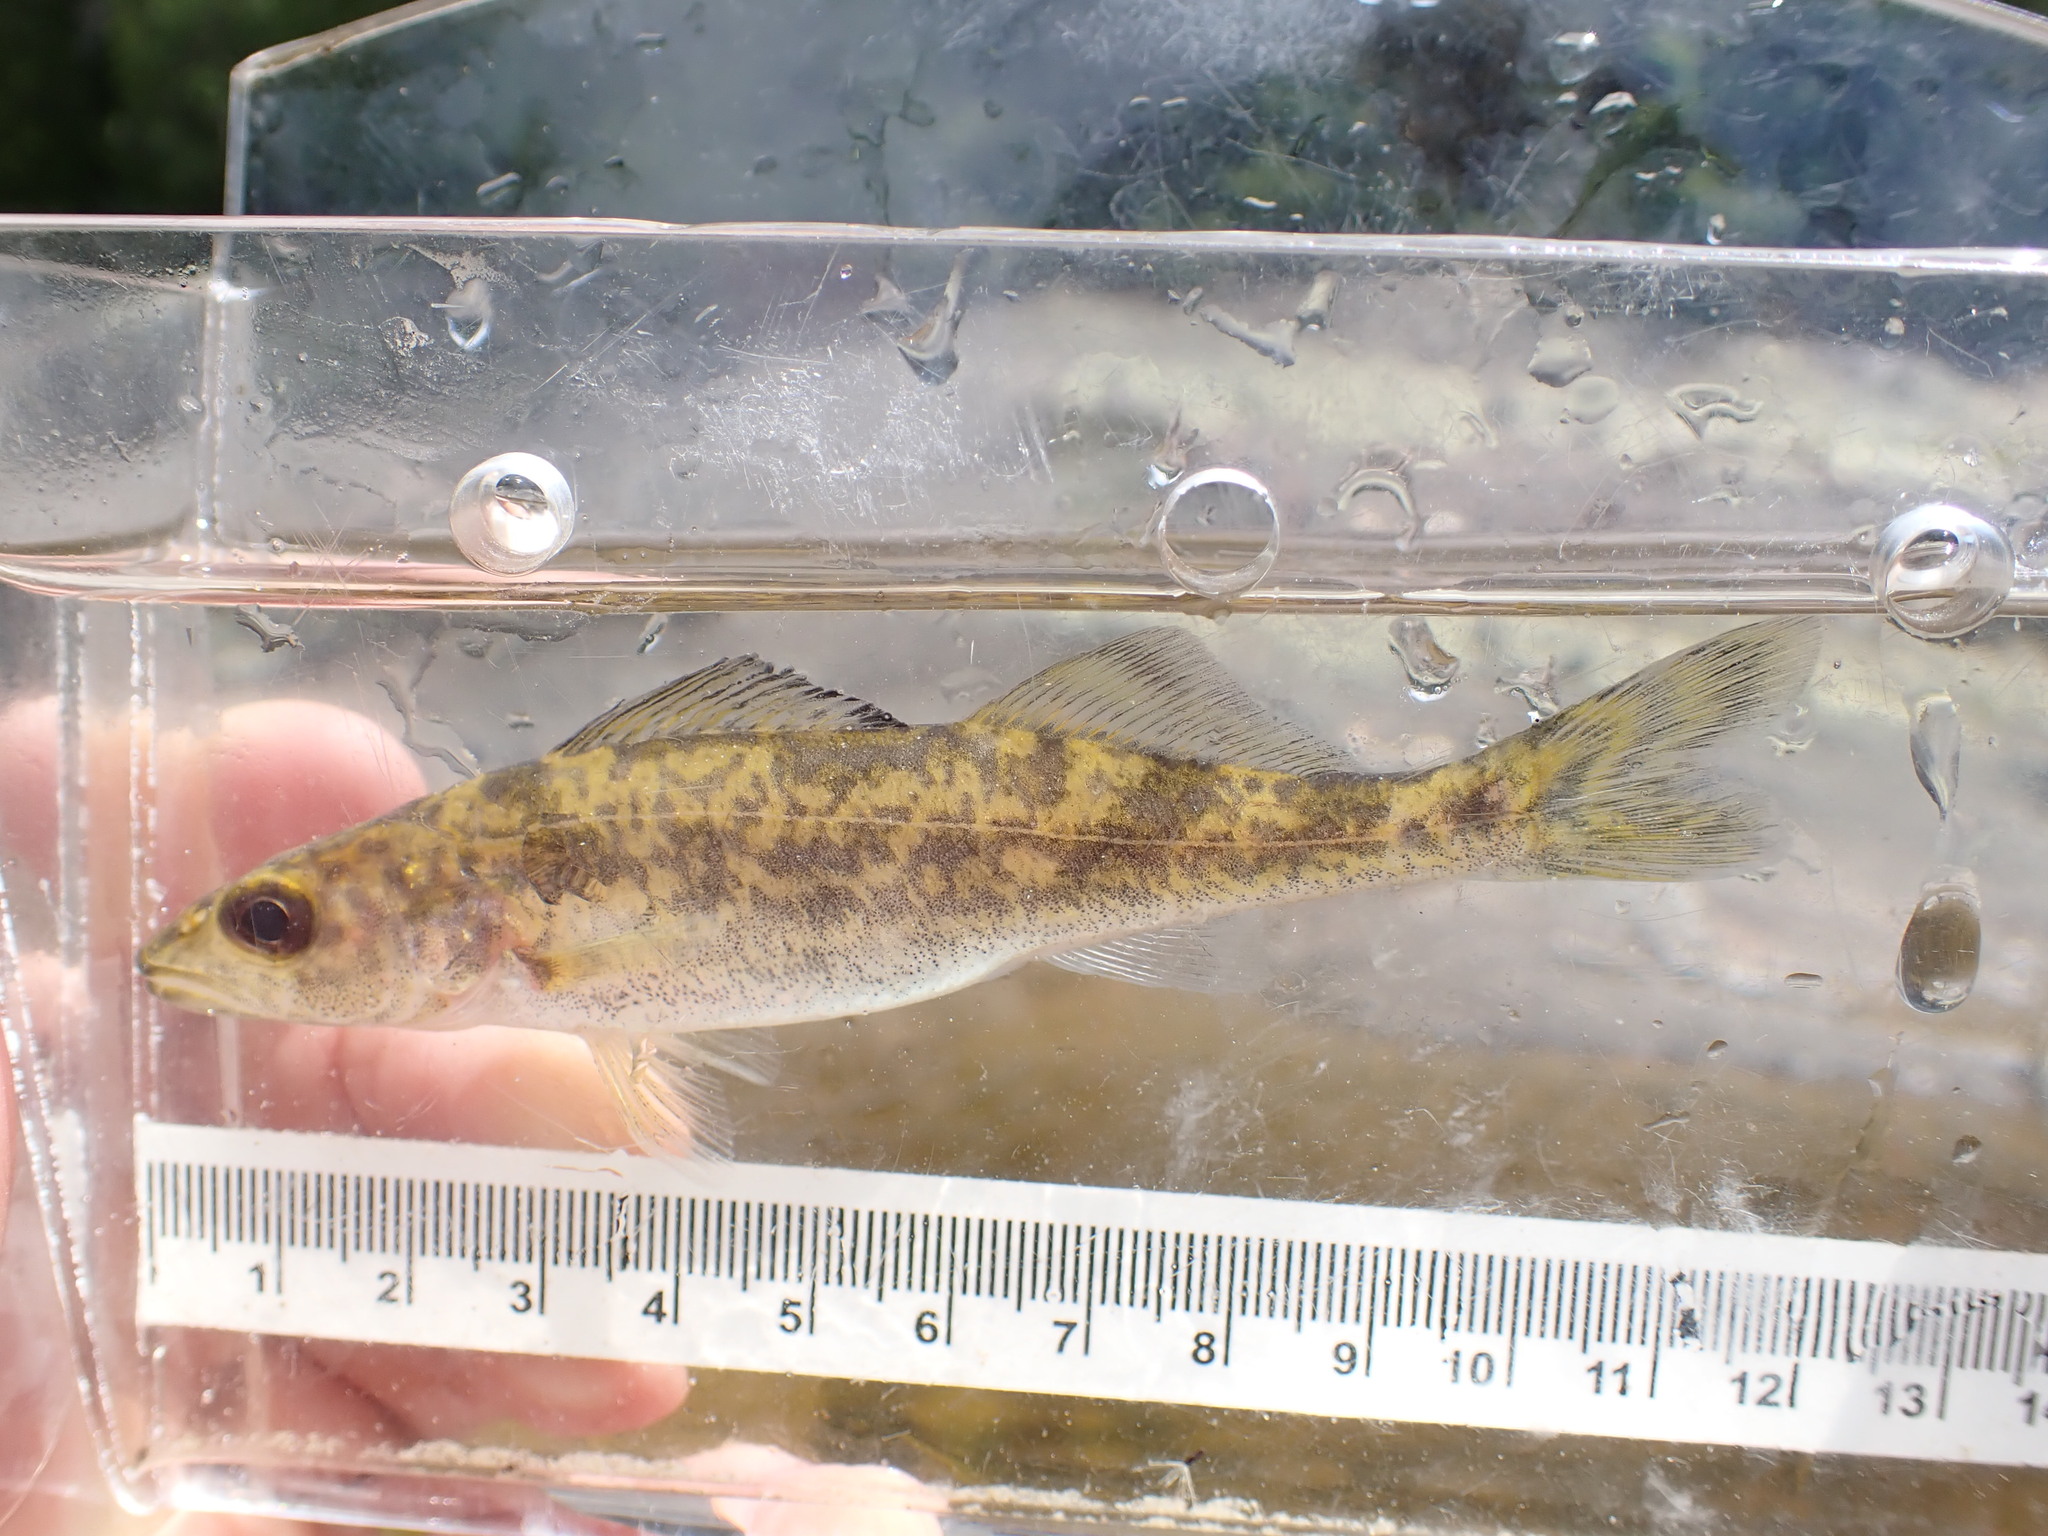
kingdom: Animalia
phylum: Chordata
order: Perciformes
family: Percidae
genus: Sander
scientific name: Sander vitreus
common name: Walleye
